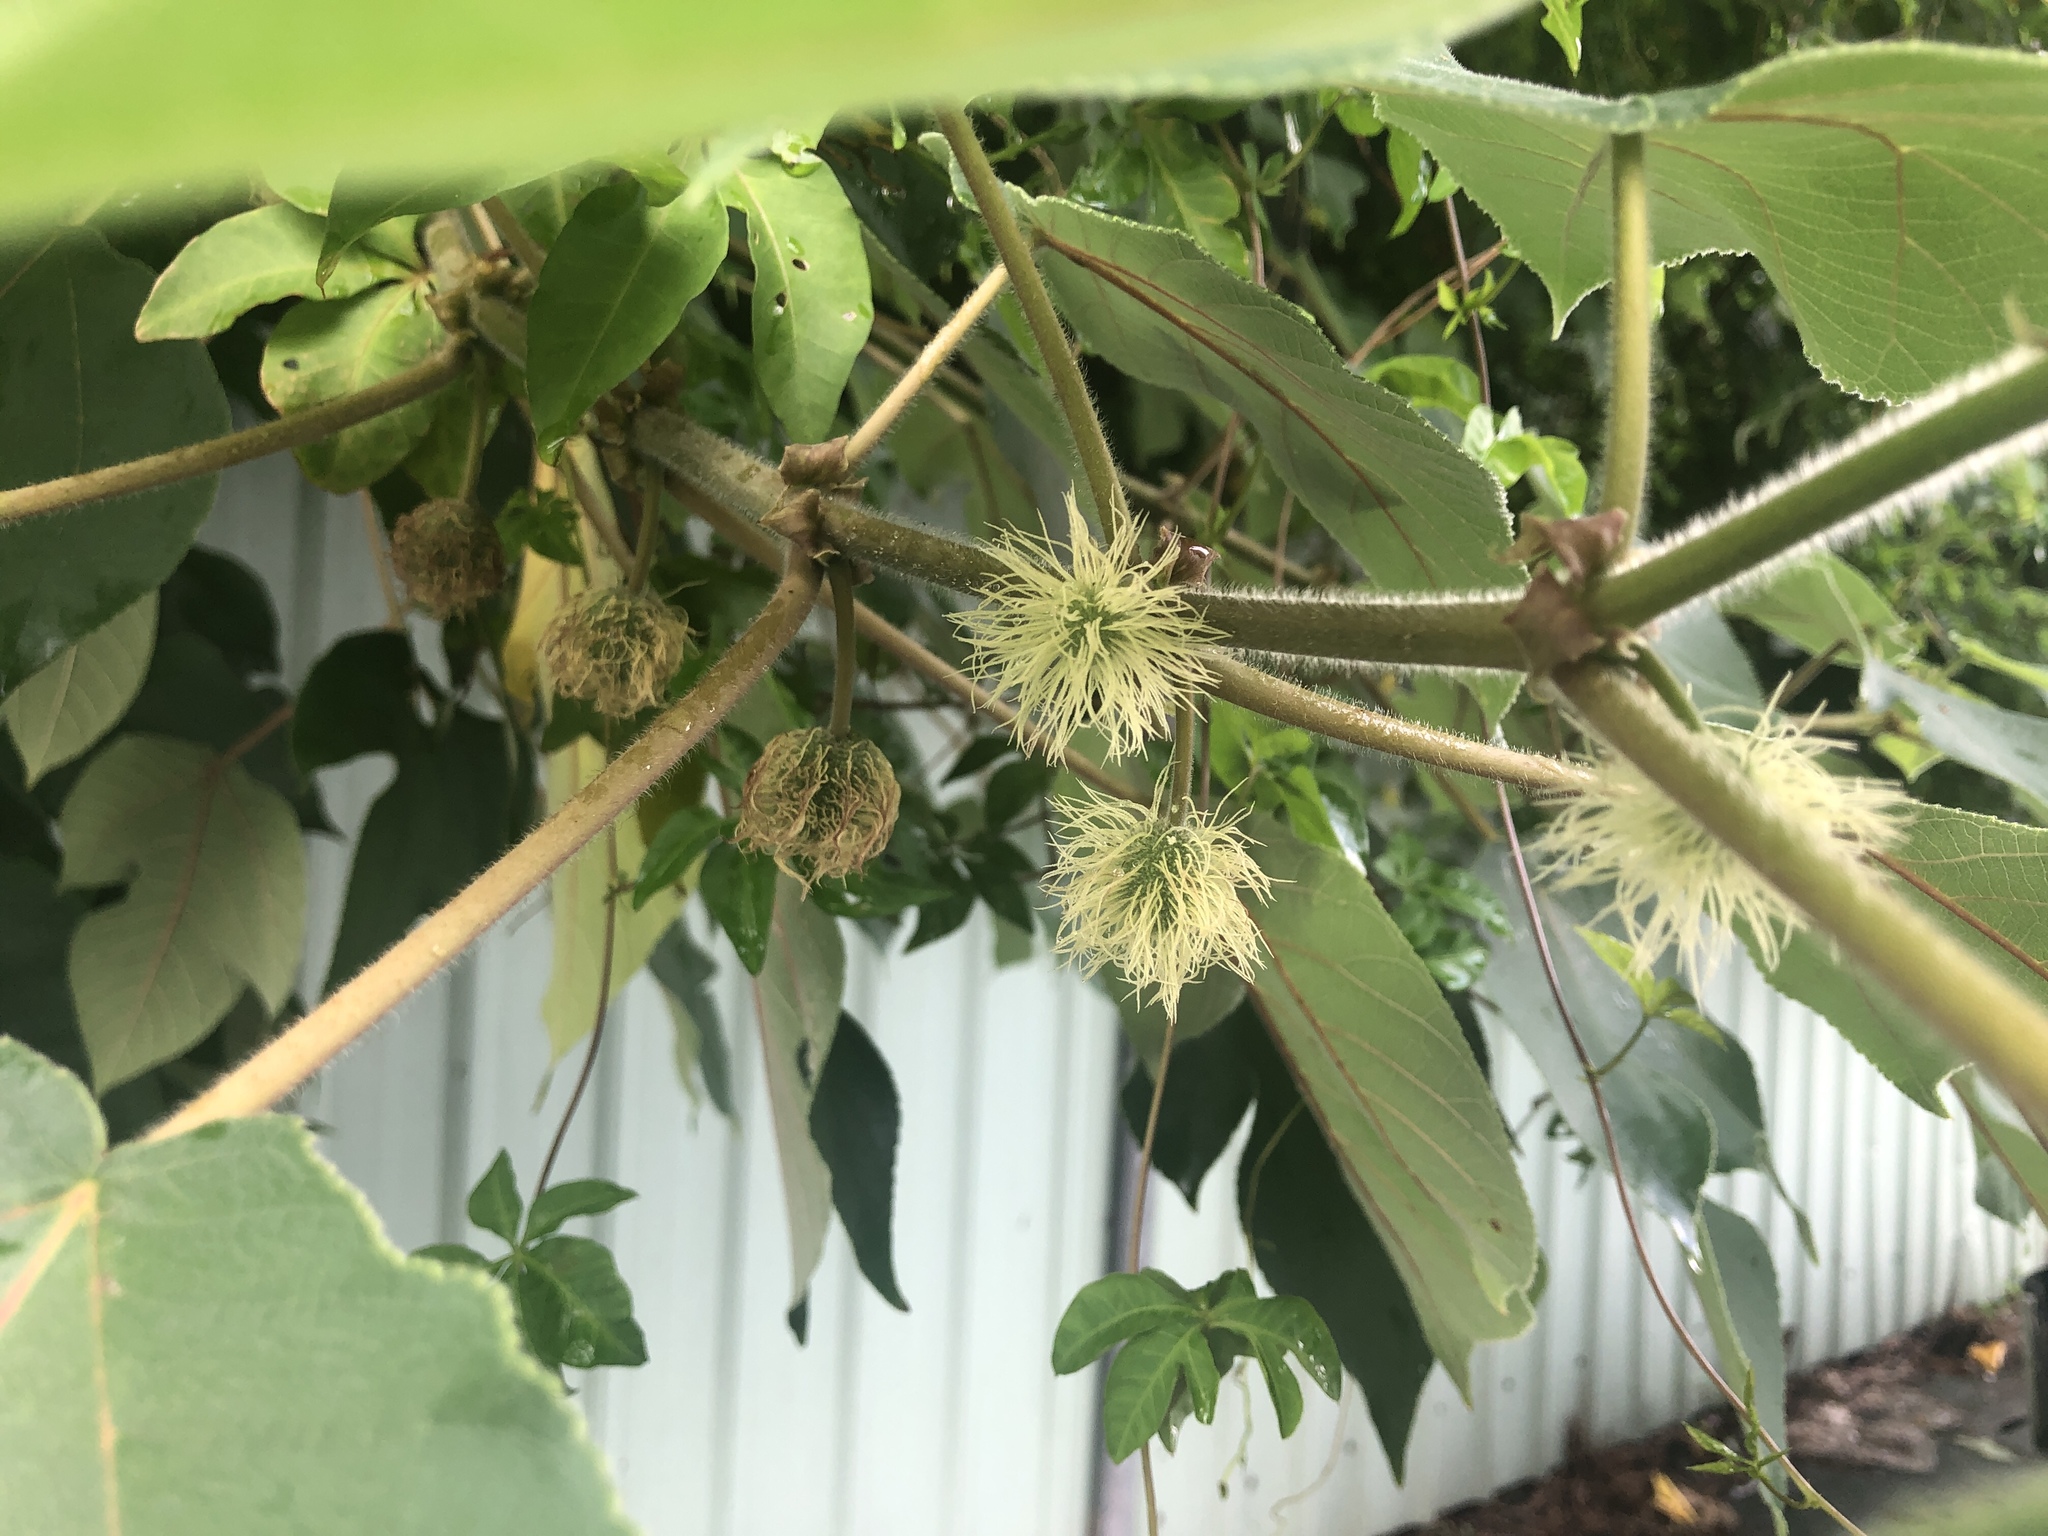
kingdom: Plantae
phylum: Tracheophyta
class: Magnoliopsida
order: Rosales
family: Moraceae
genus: Broussonetia
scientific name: Broussonetia papyrifera
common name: Paper mulberry
